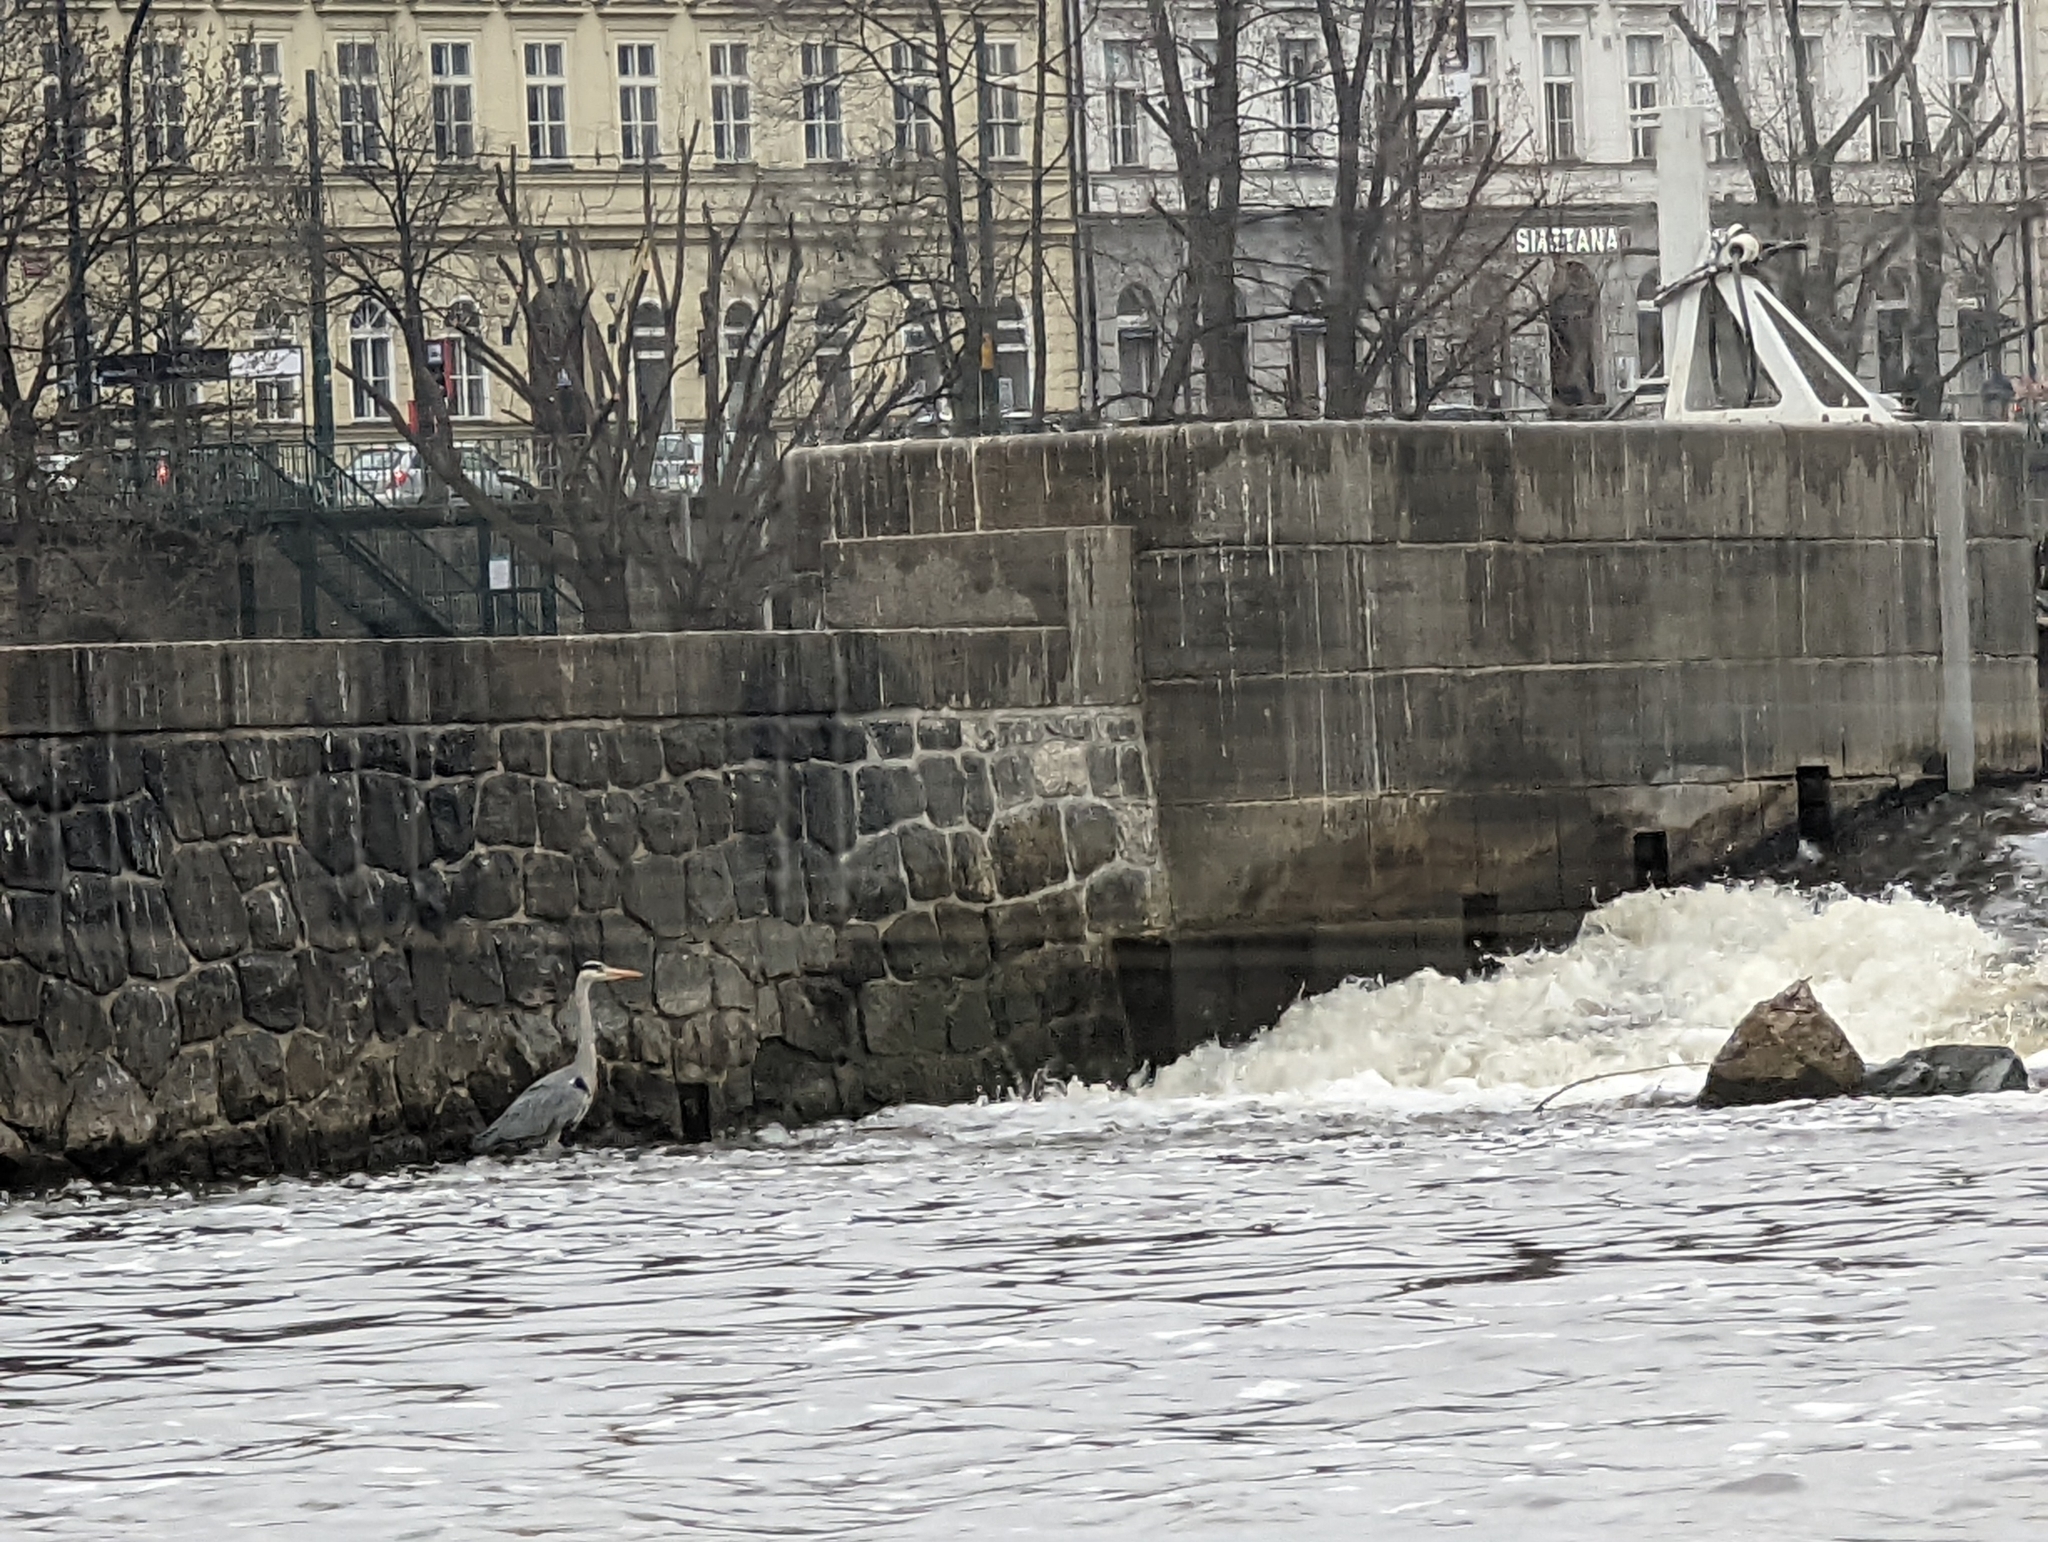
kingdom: Animalia
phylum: Chordata
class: Aves
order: Pelecaniformes
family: Ardeidae
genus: Ardea
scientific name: Ardea cinerea
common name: Grey heron
